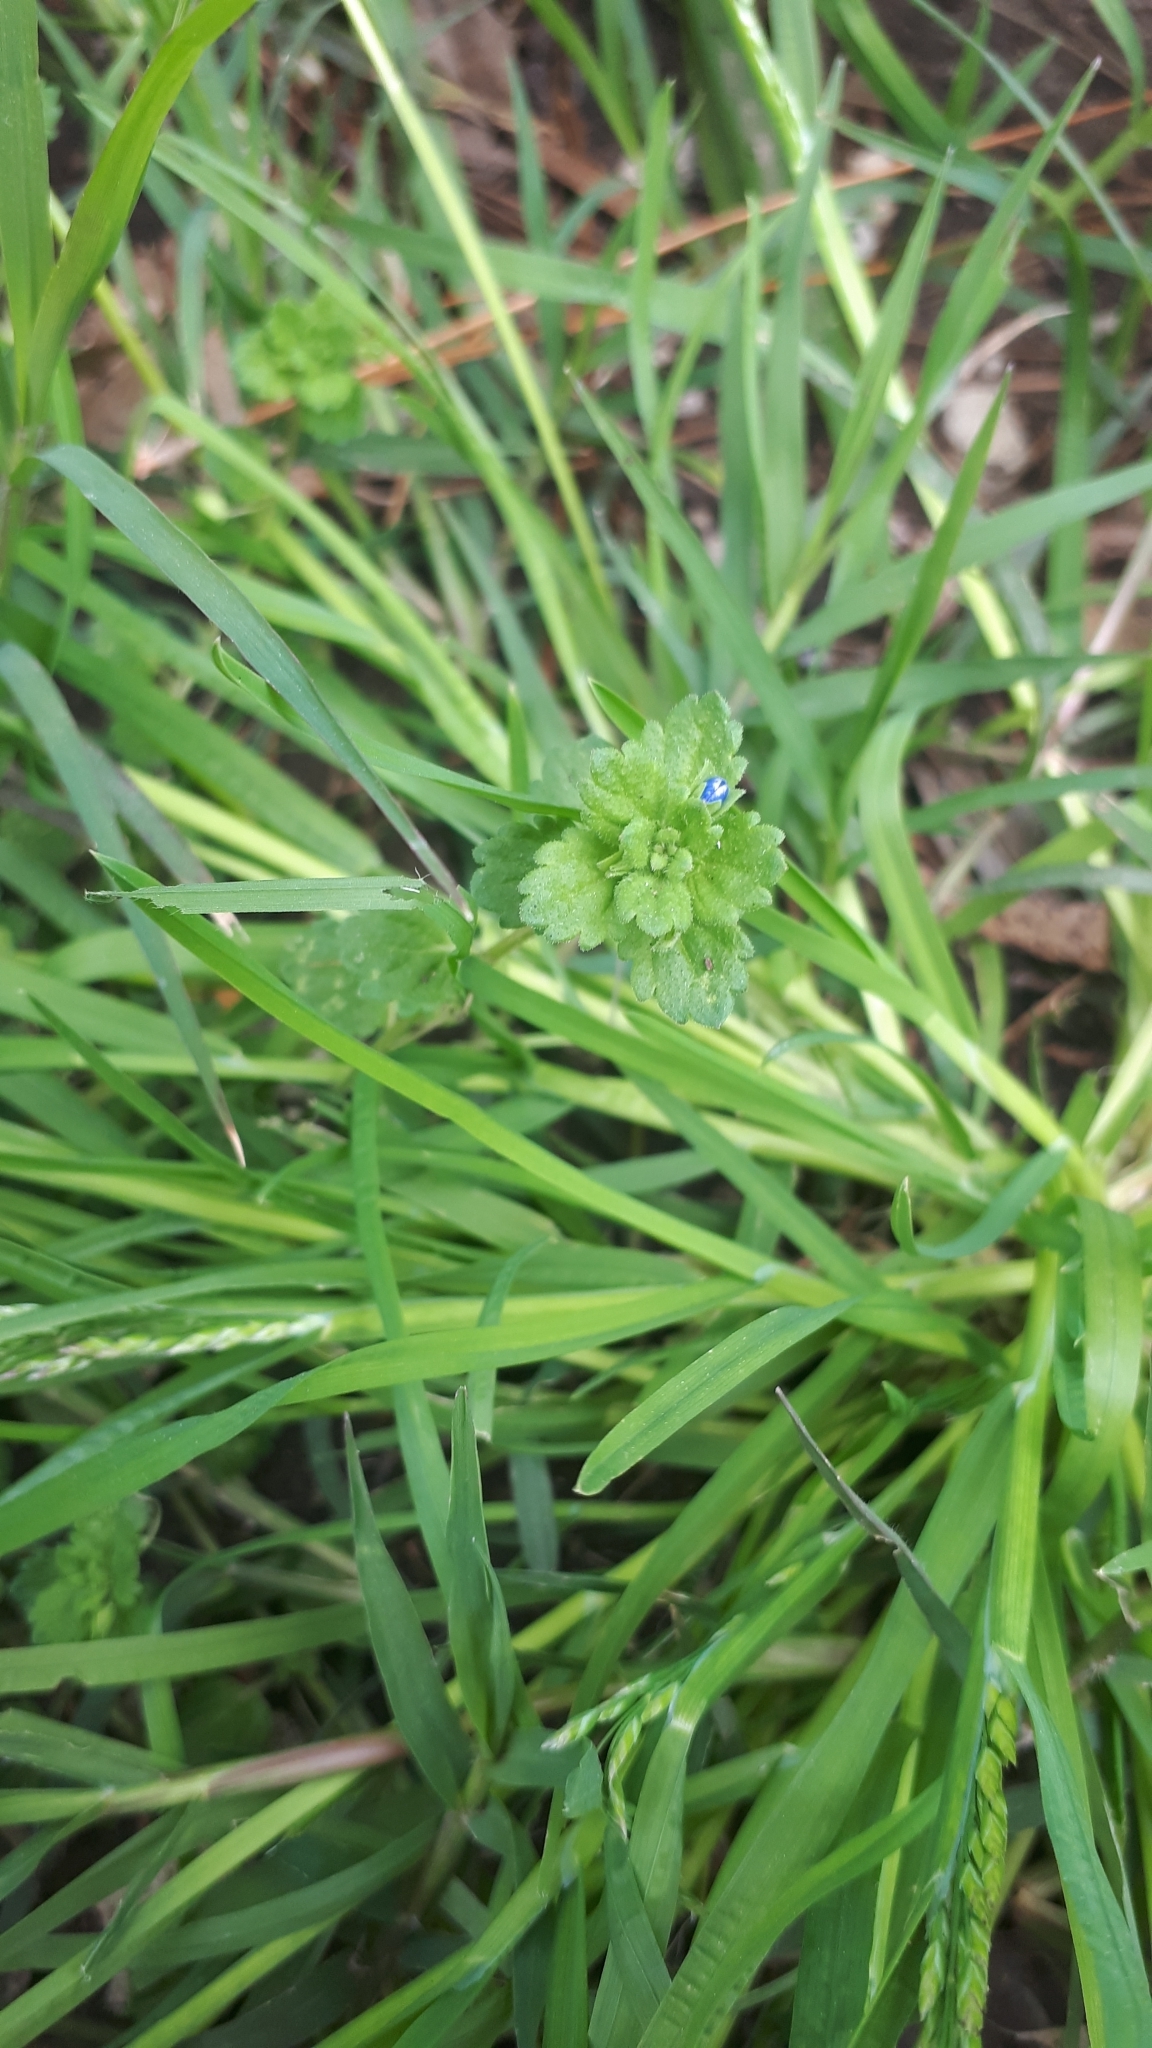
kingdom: Plantae
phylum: Tracheophyta
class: Magnoliopsida
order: Lamiales
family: Plantaginaceae
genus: Veronica
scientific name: Veronica persica
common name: Common field-speedwell
